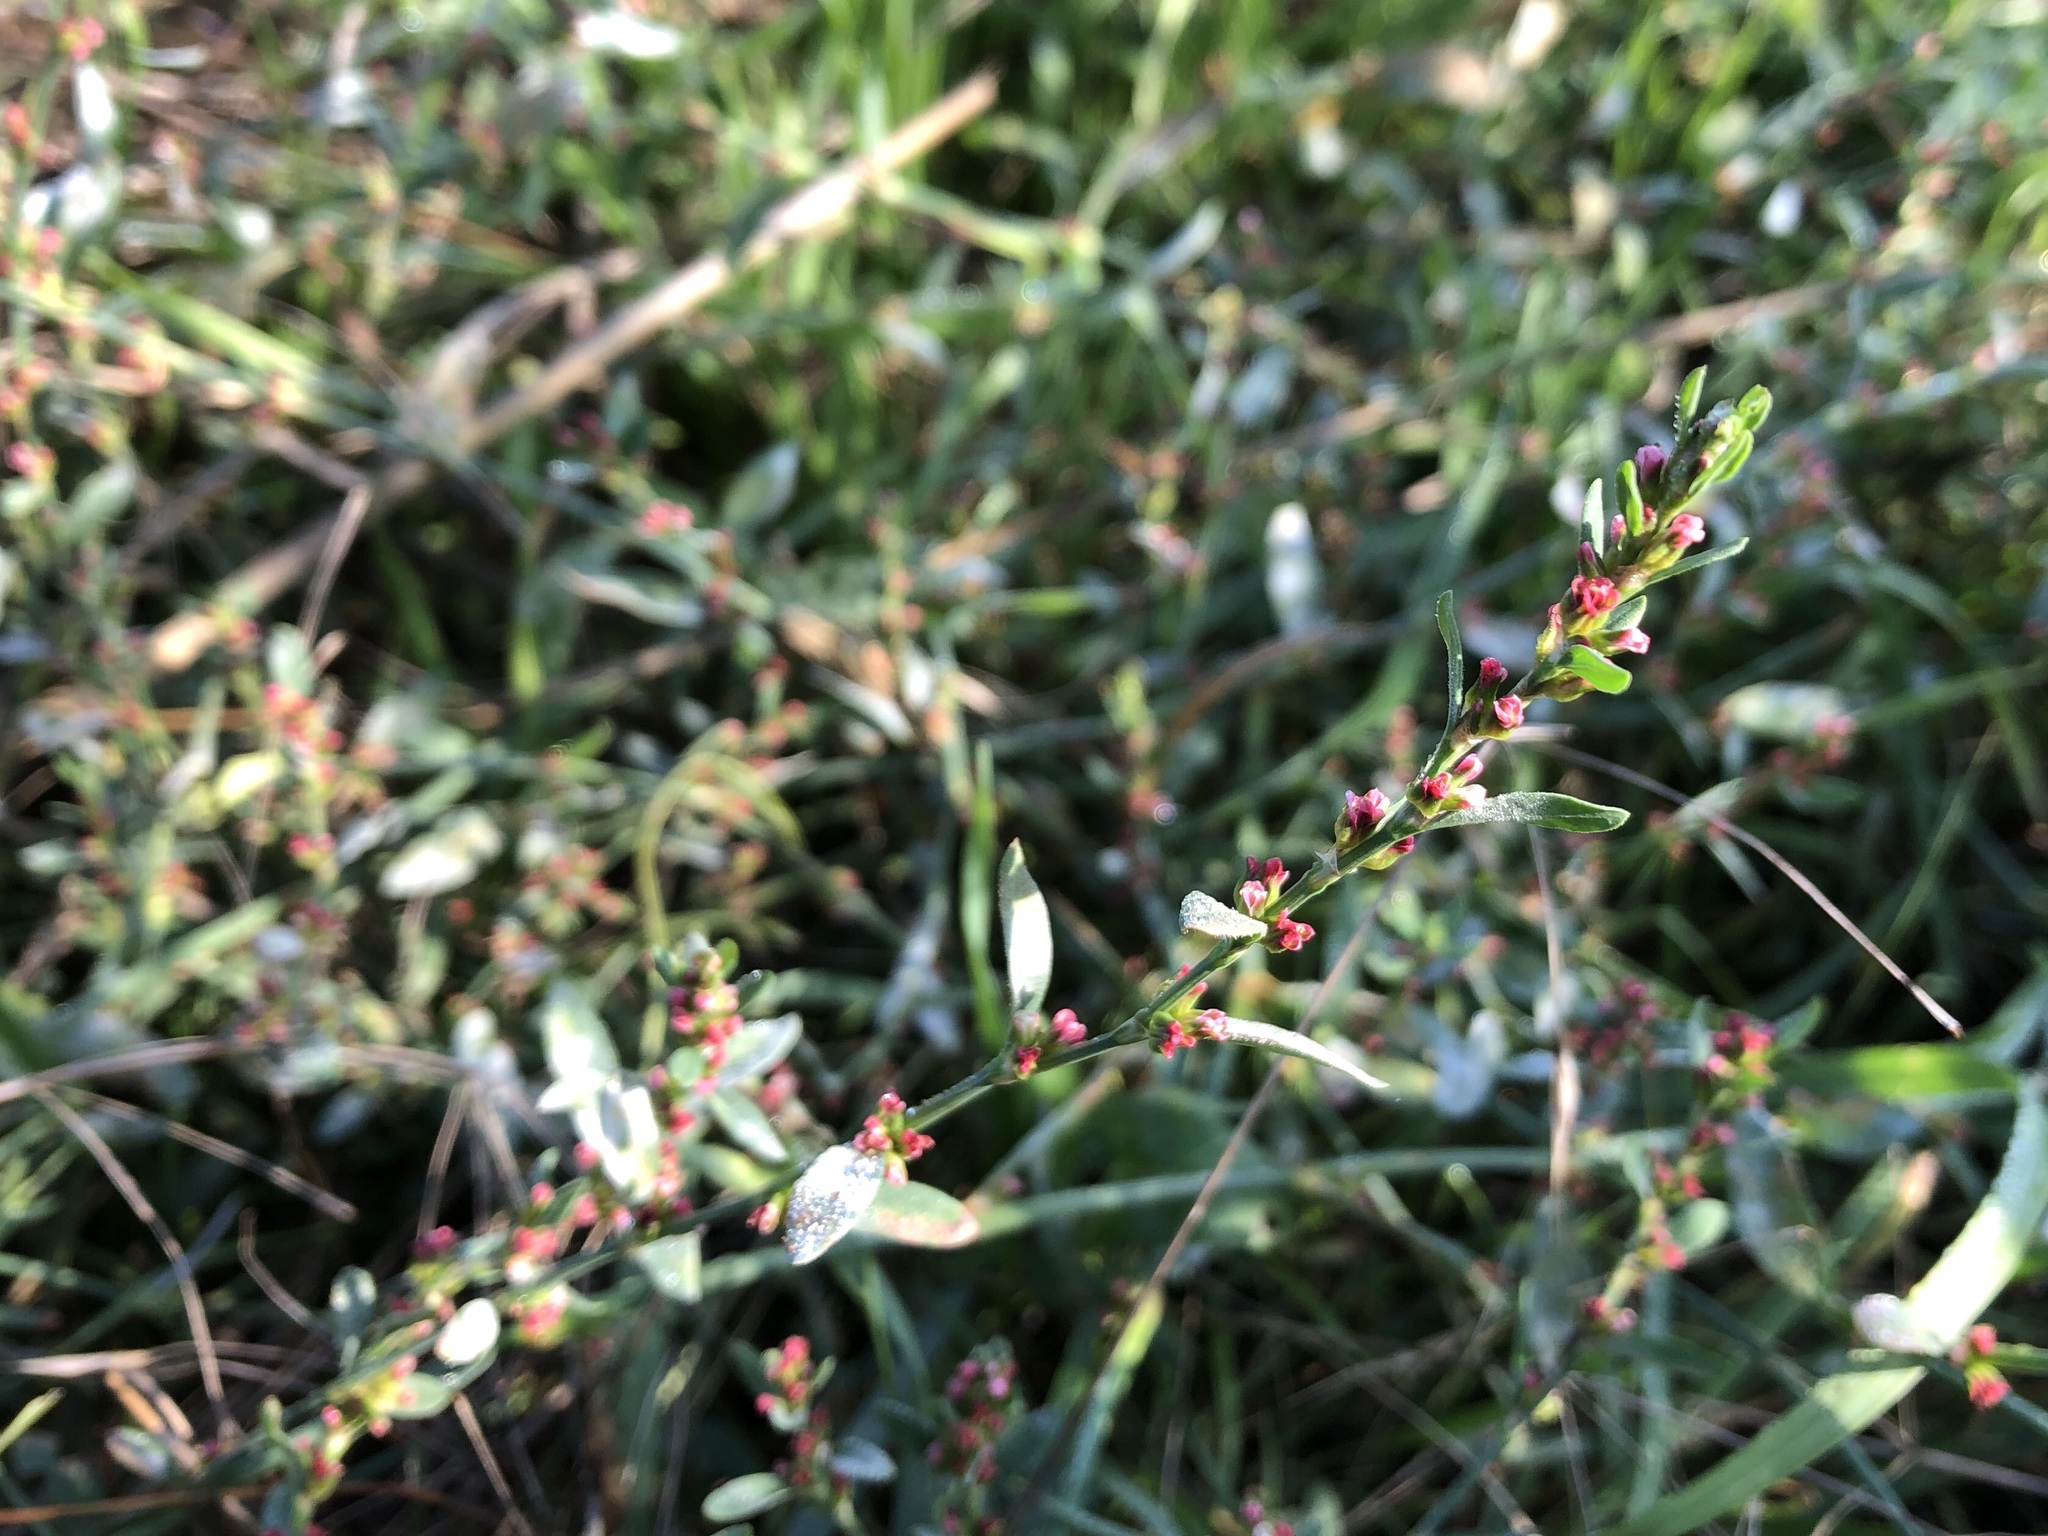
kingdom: Plantae
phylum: Tracheophyta
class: Magnoliopsida
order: Caryophyllales
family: Polygonaceae
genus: Polygonum
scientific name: Polygonum aviculare
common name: Prostrate knotweed
